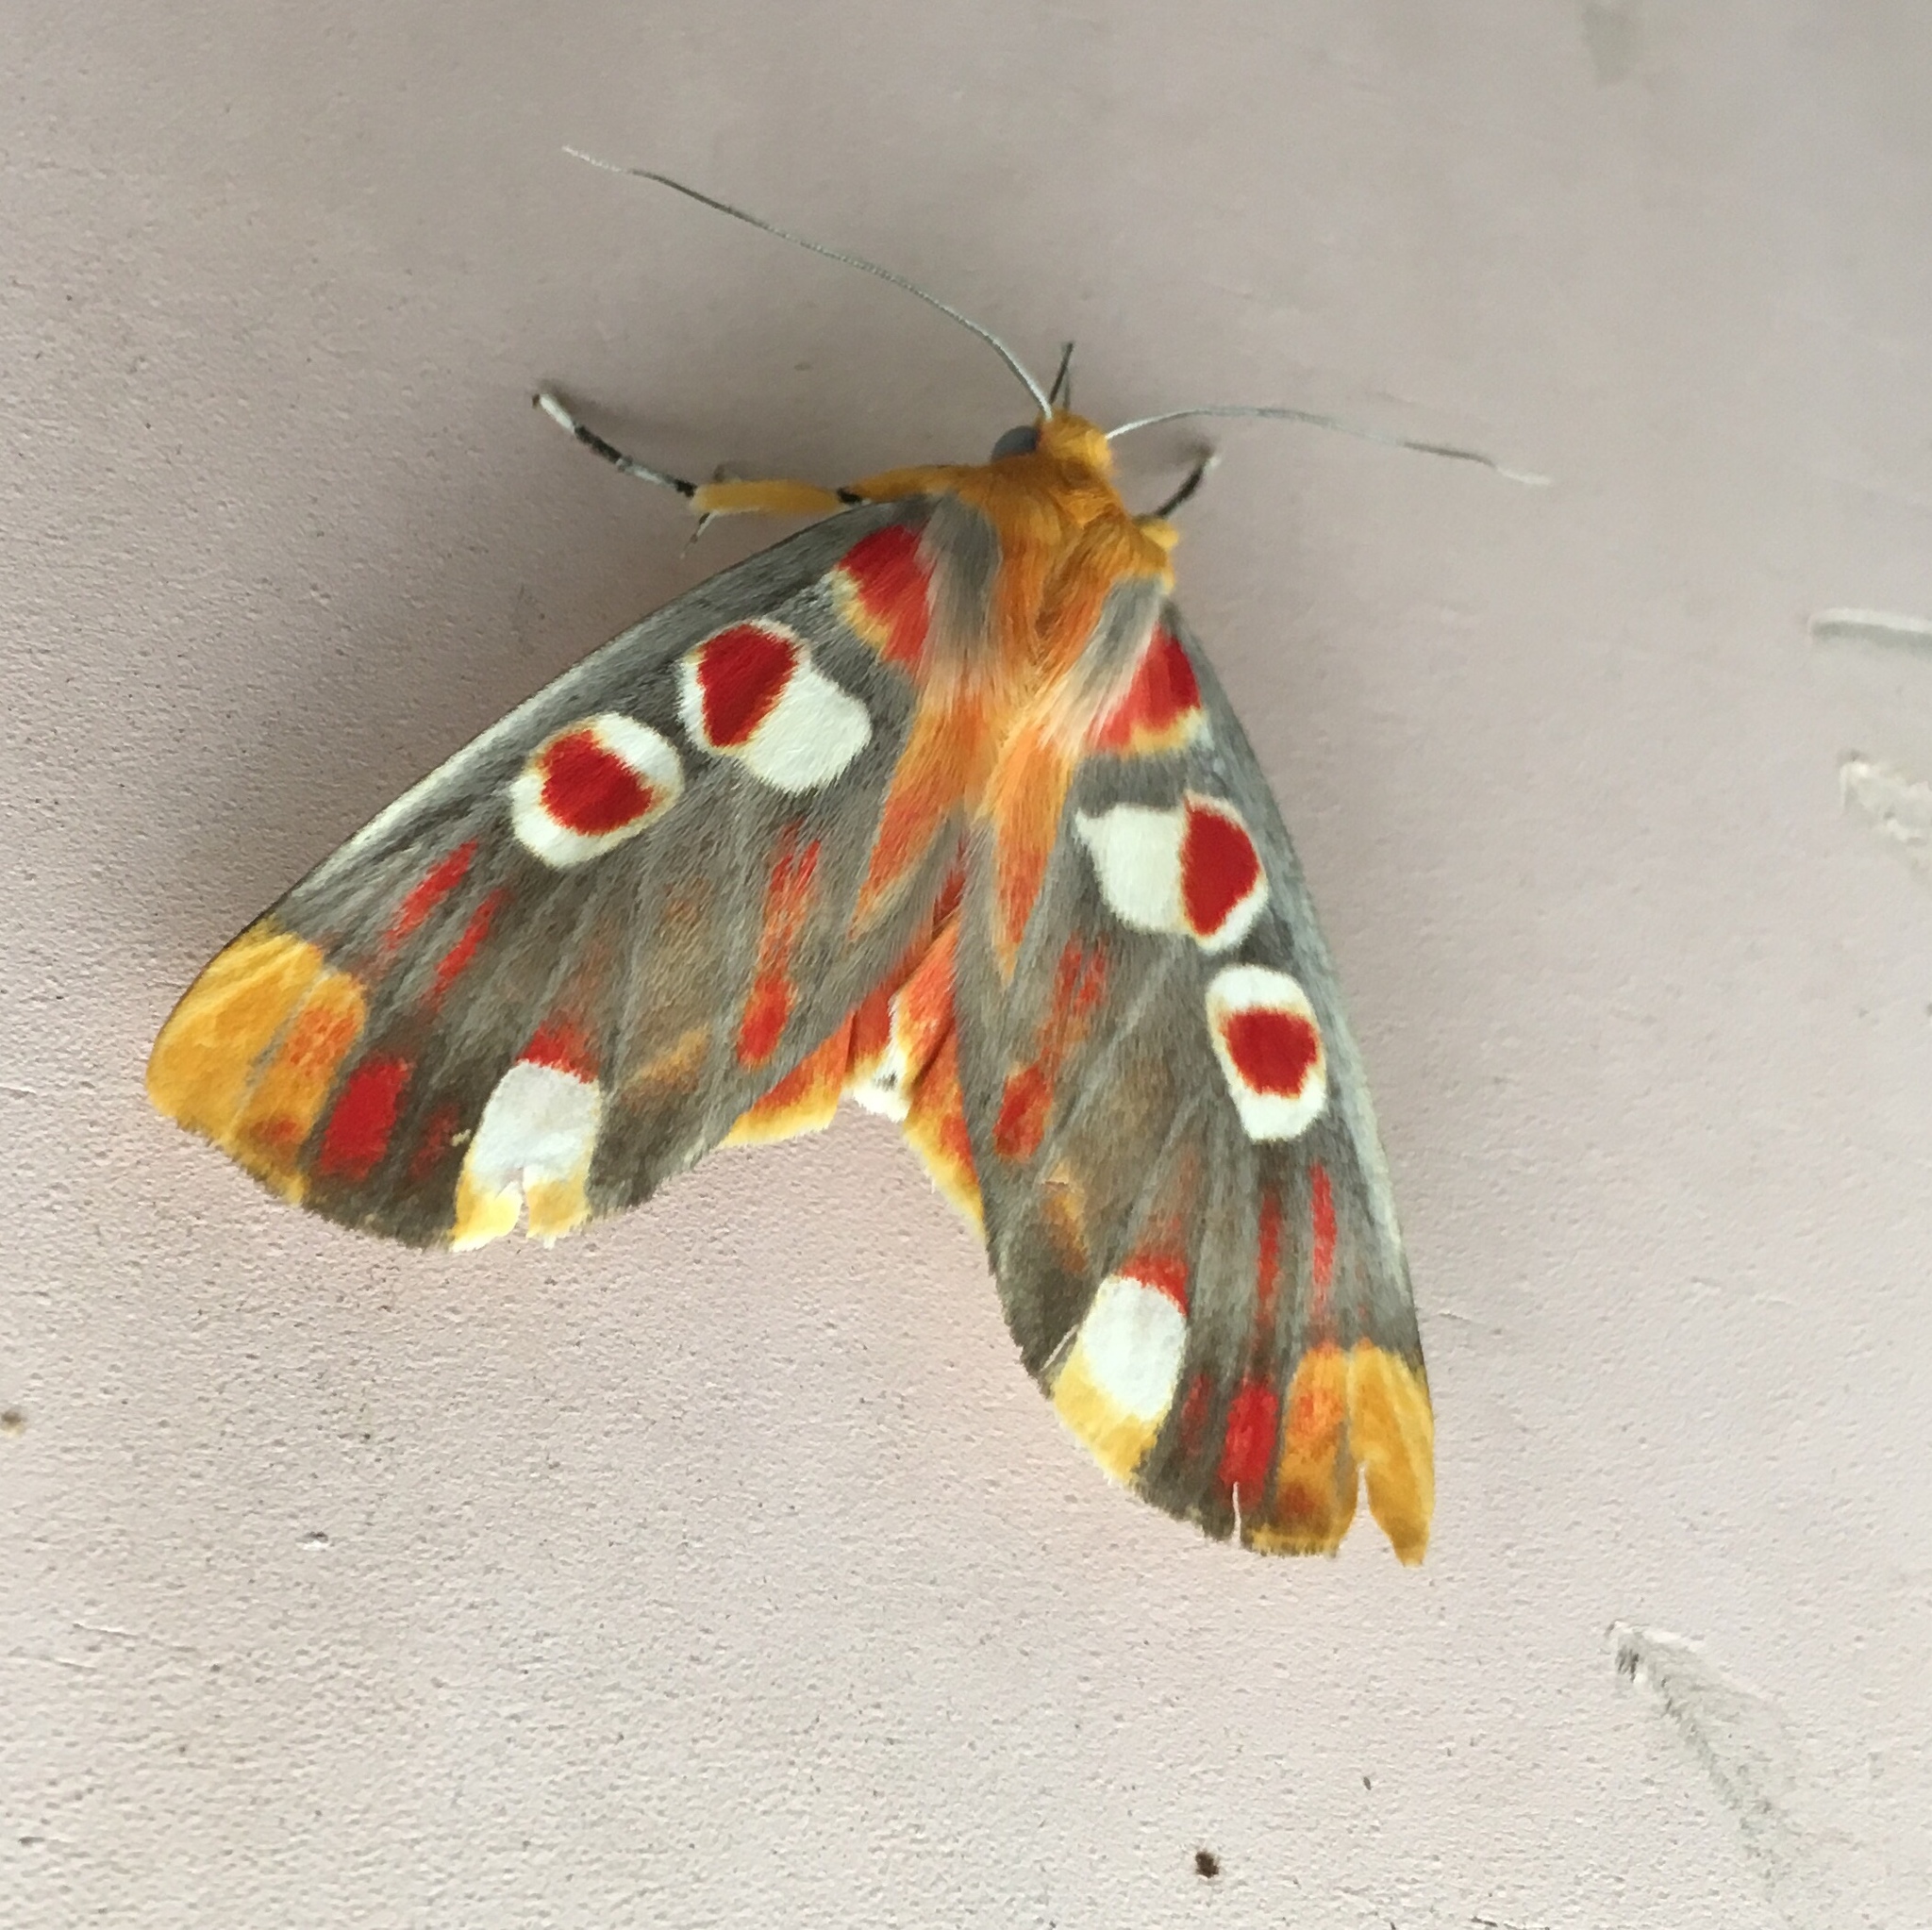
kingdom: Animalia
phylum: Arthropoda
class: Insecta
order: Lepidoptera
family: Drepanidae
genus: Hypsidia
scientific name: Hypsidia erythropsalis
